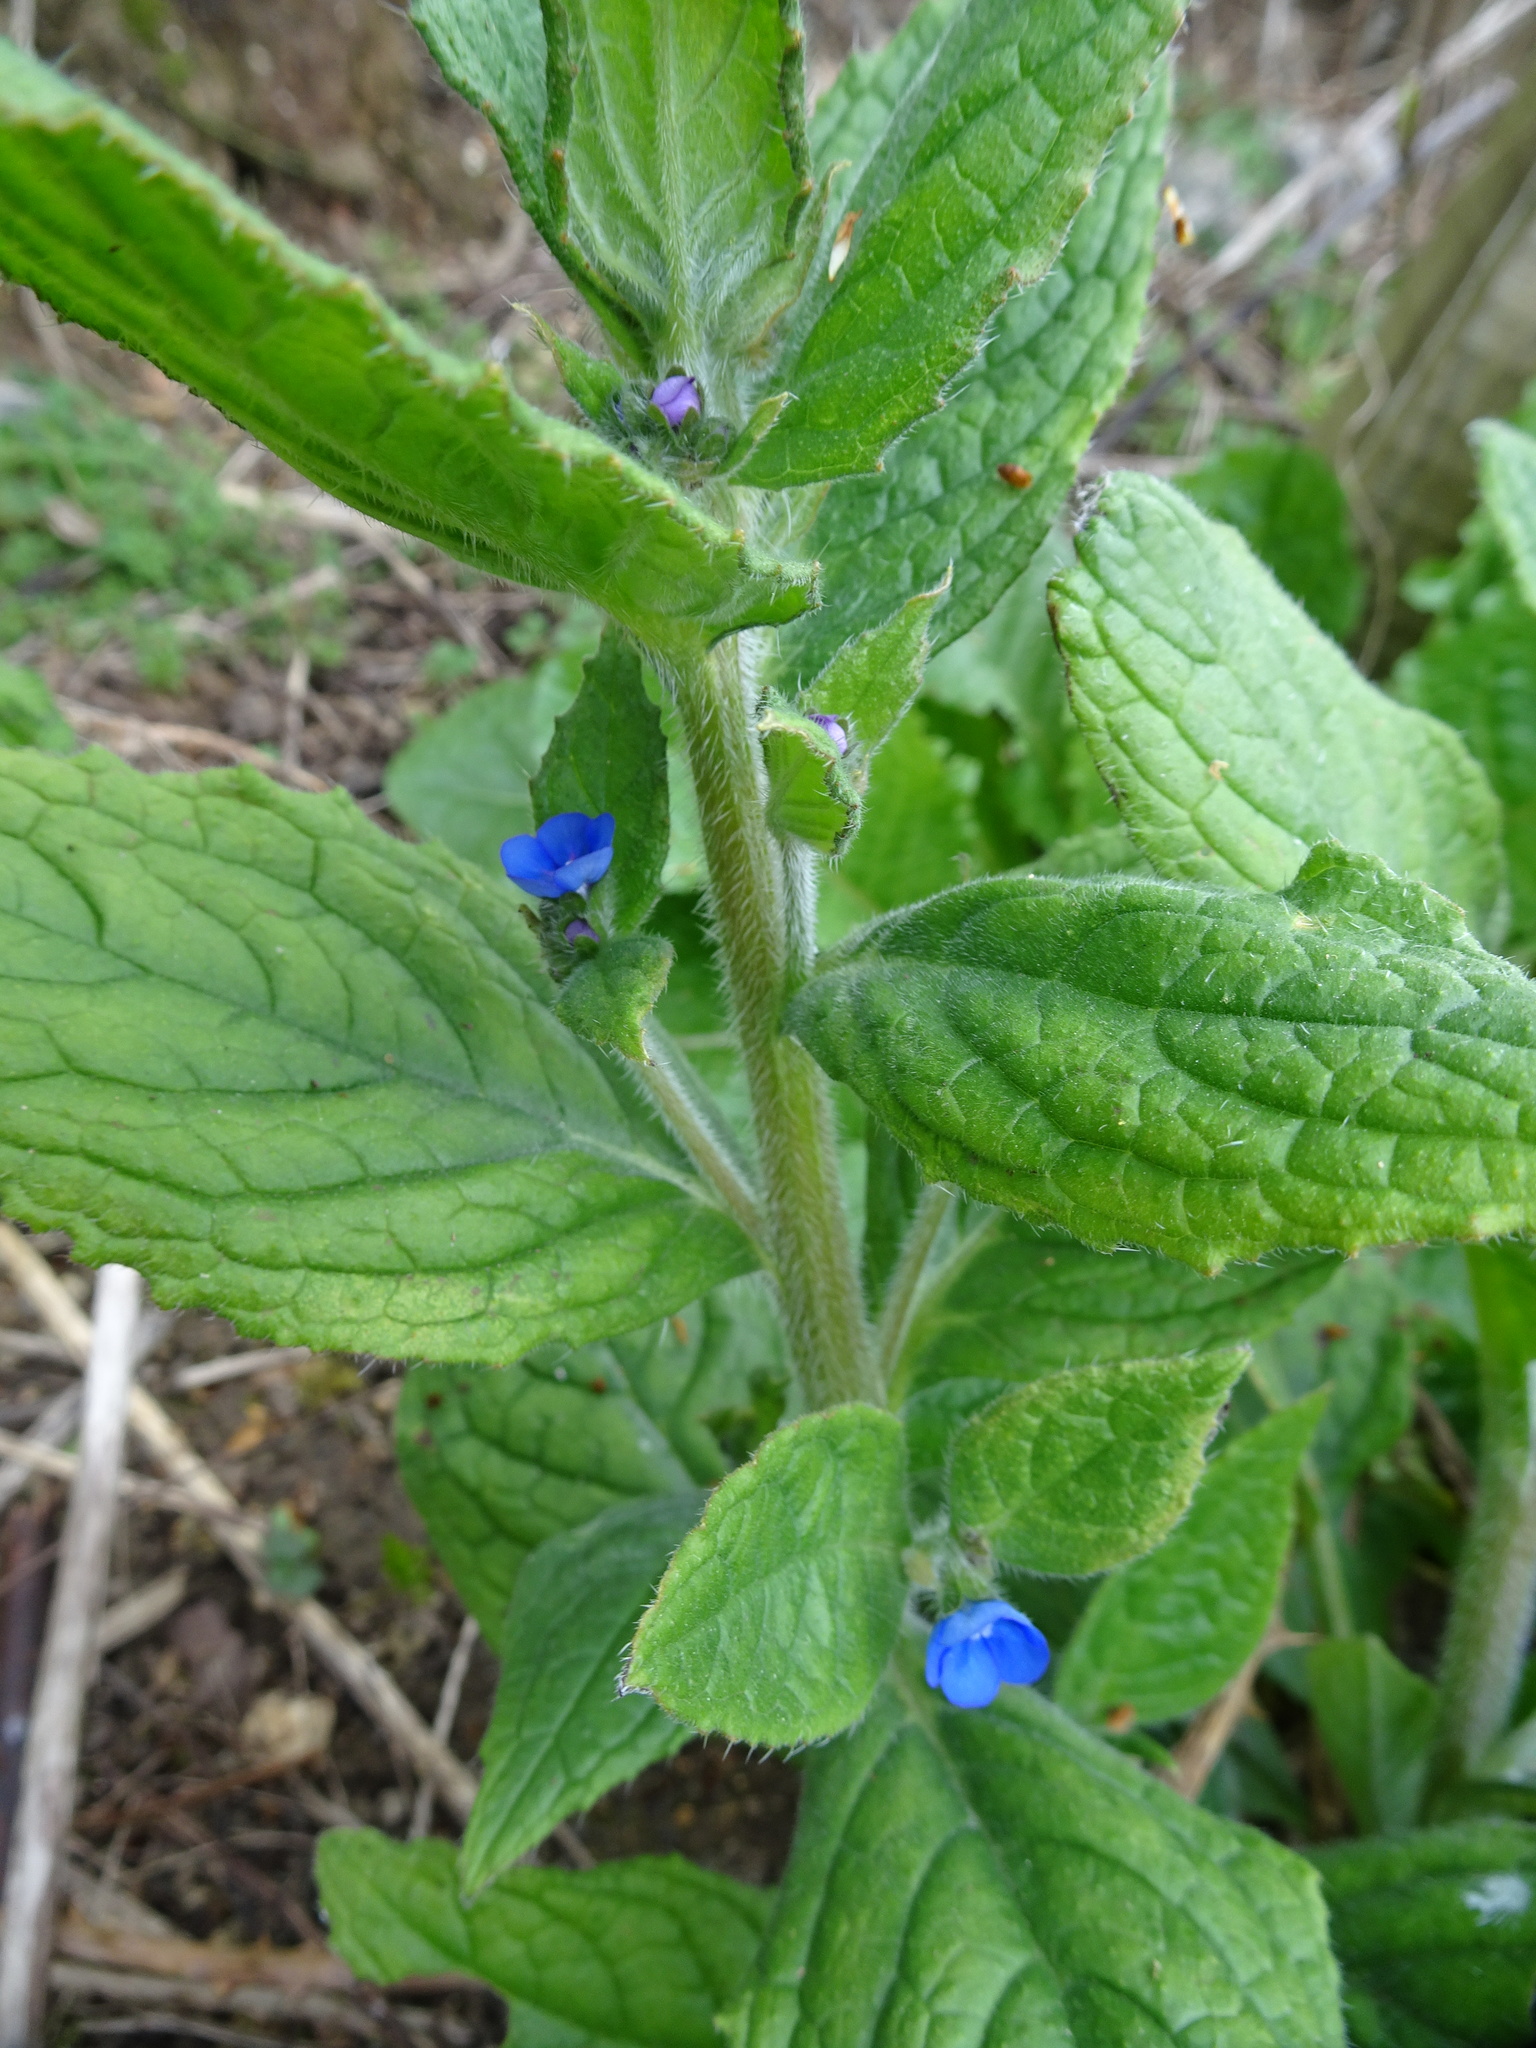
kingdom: Plantae
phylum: Tracheophyta
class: Magnoliopsida
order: Boraginales
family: Boraginaceae
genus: Pentaglottis
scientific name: Pentaglottis sempervirens
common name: Green alkanet
